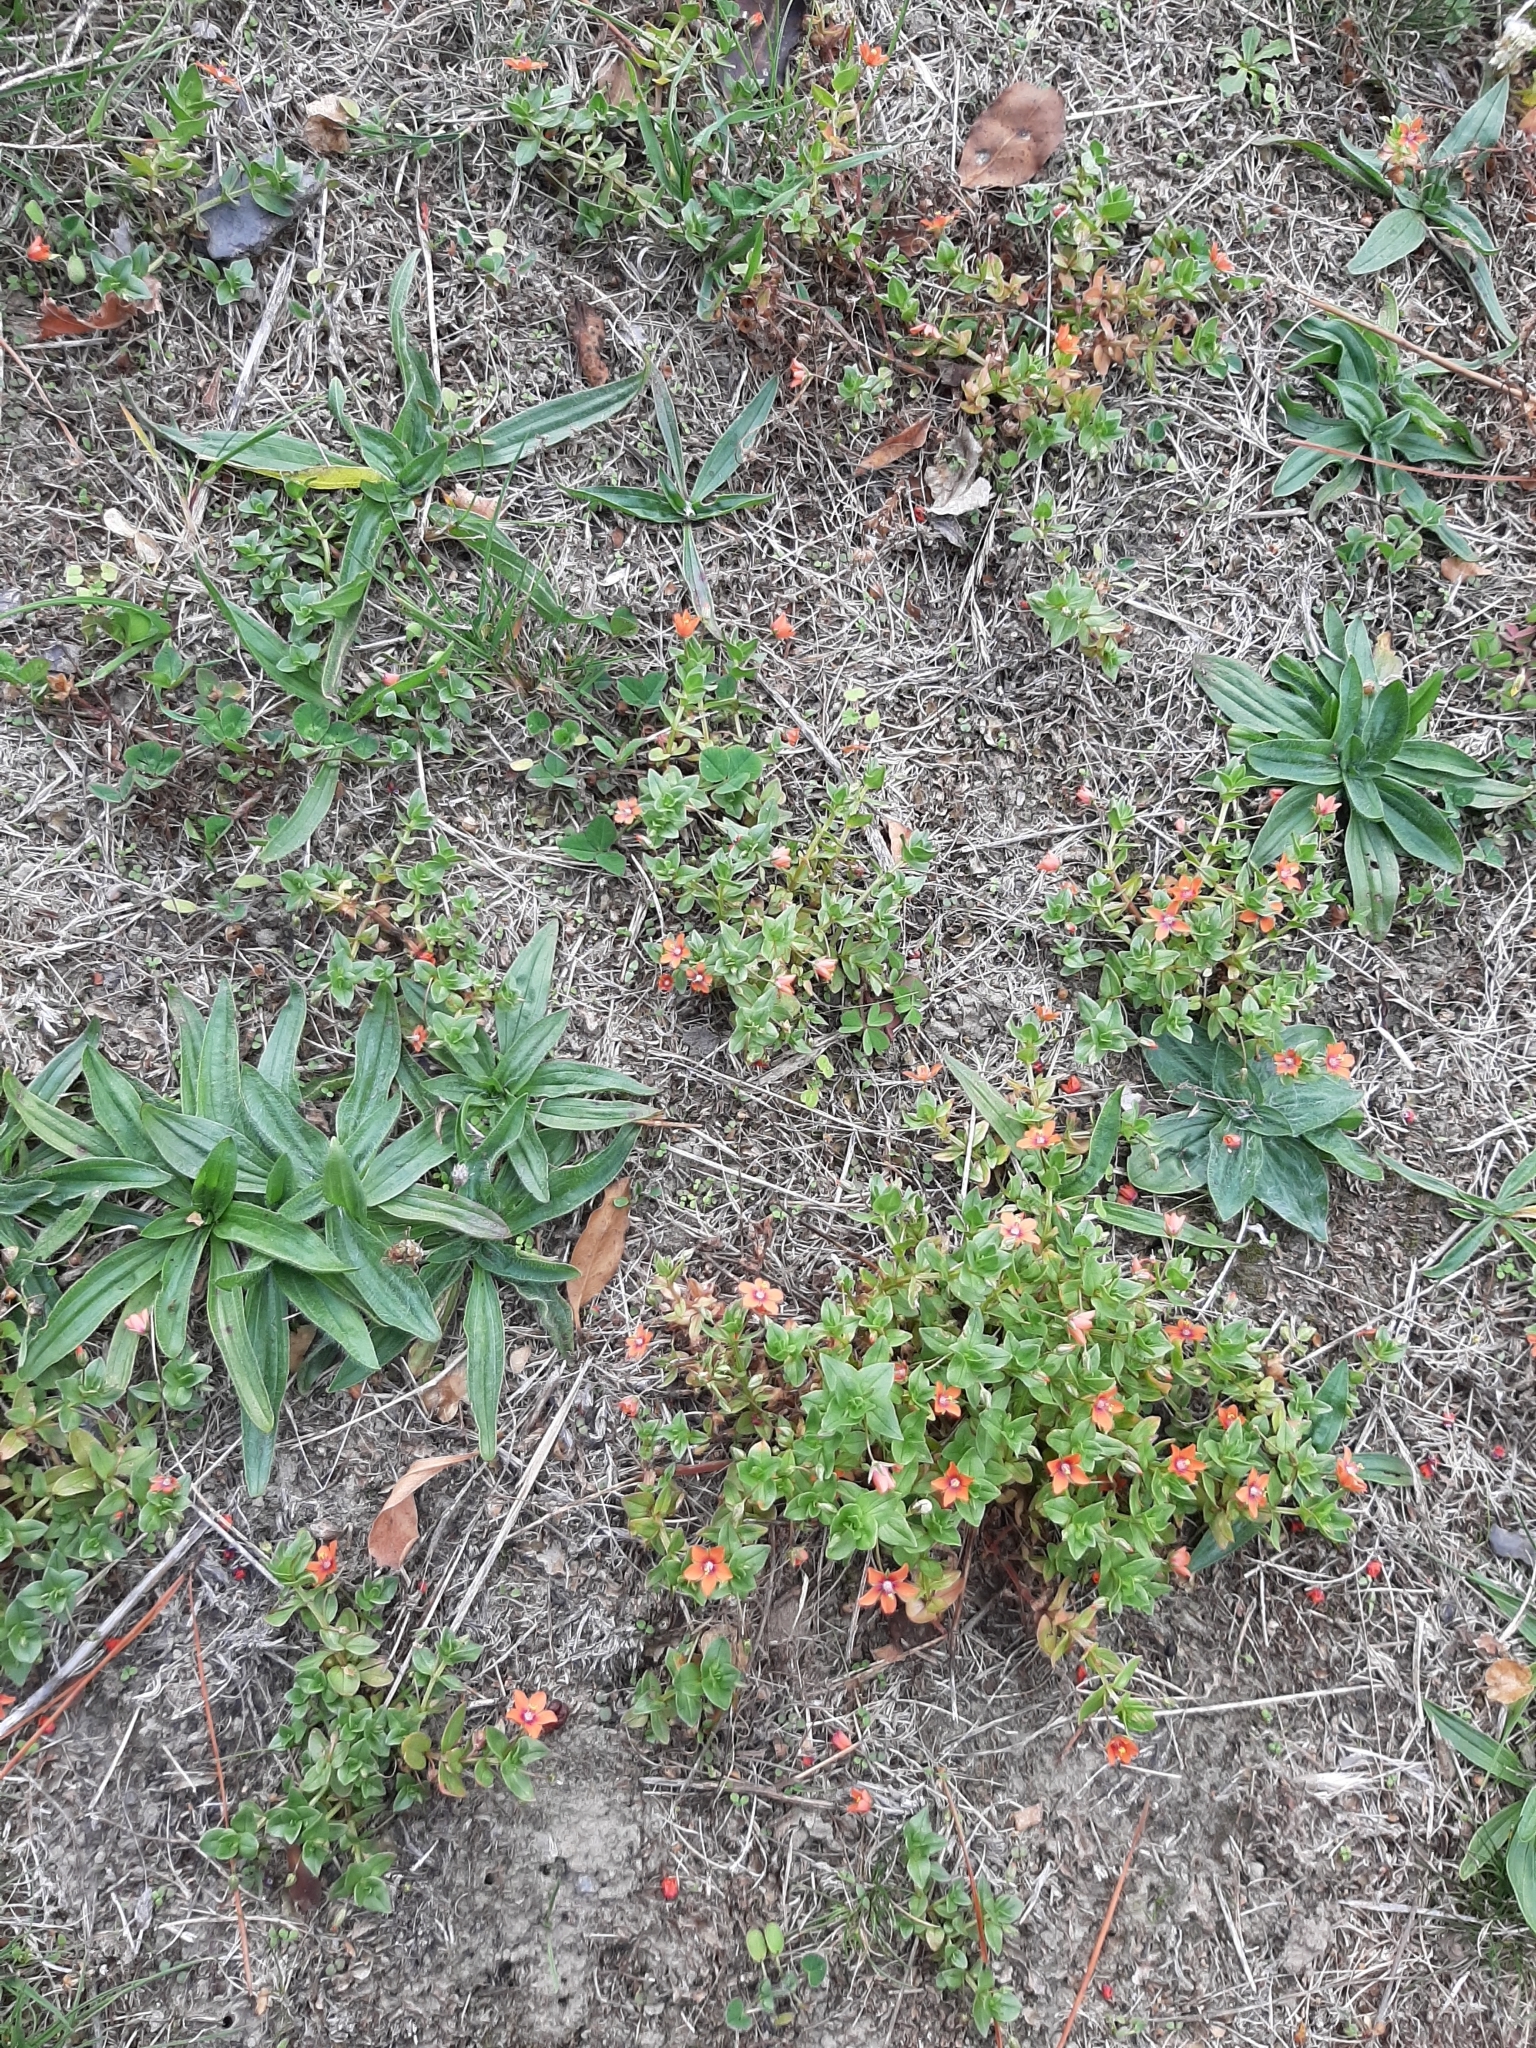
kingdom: Plantae
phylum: Tracheophyta
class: Magnoliopsida
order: Ericales
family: Primulaceae
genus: Lysimachia
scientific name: Lysimachia arvensis
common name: Scarlet pimpernel
